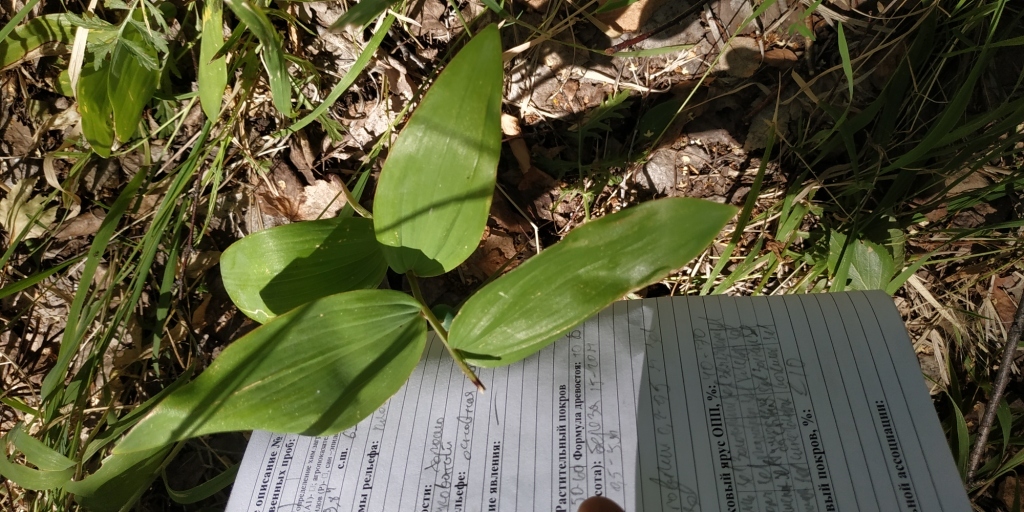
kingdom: Plantae
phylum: Tracheophyta
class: Liliopsida
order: Asparagales
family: Asparagaceae
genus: Polygonatum
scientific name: Polygonatum odoratum
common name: Angular solomon's-seal
